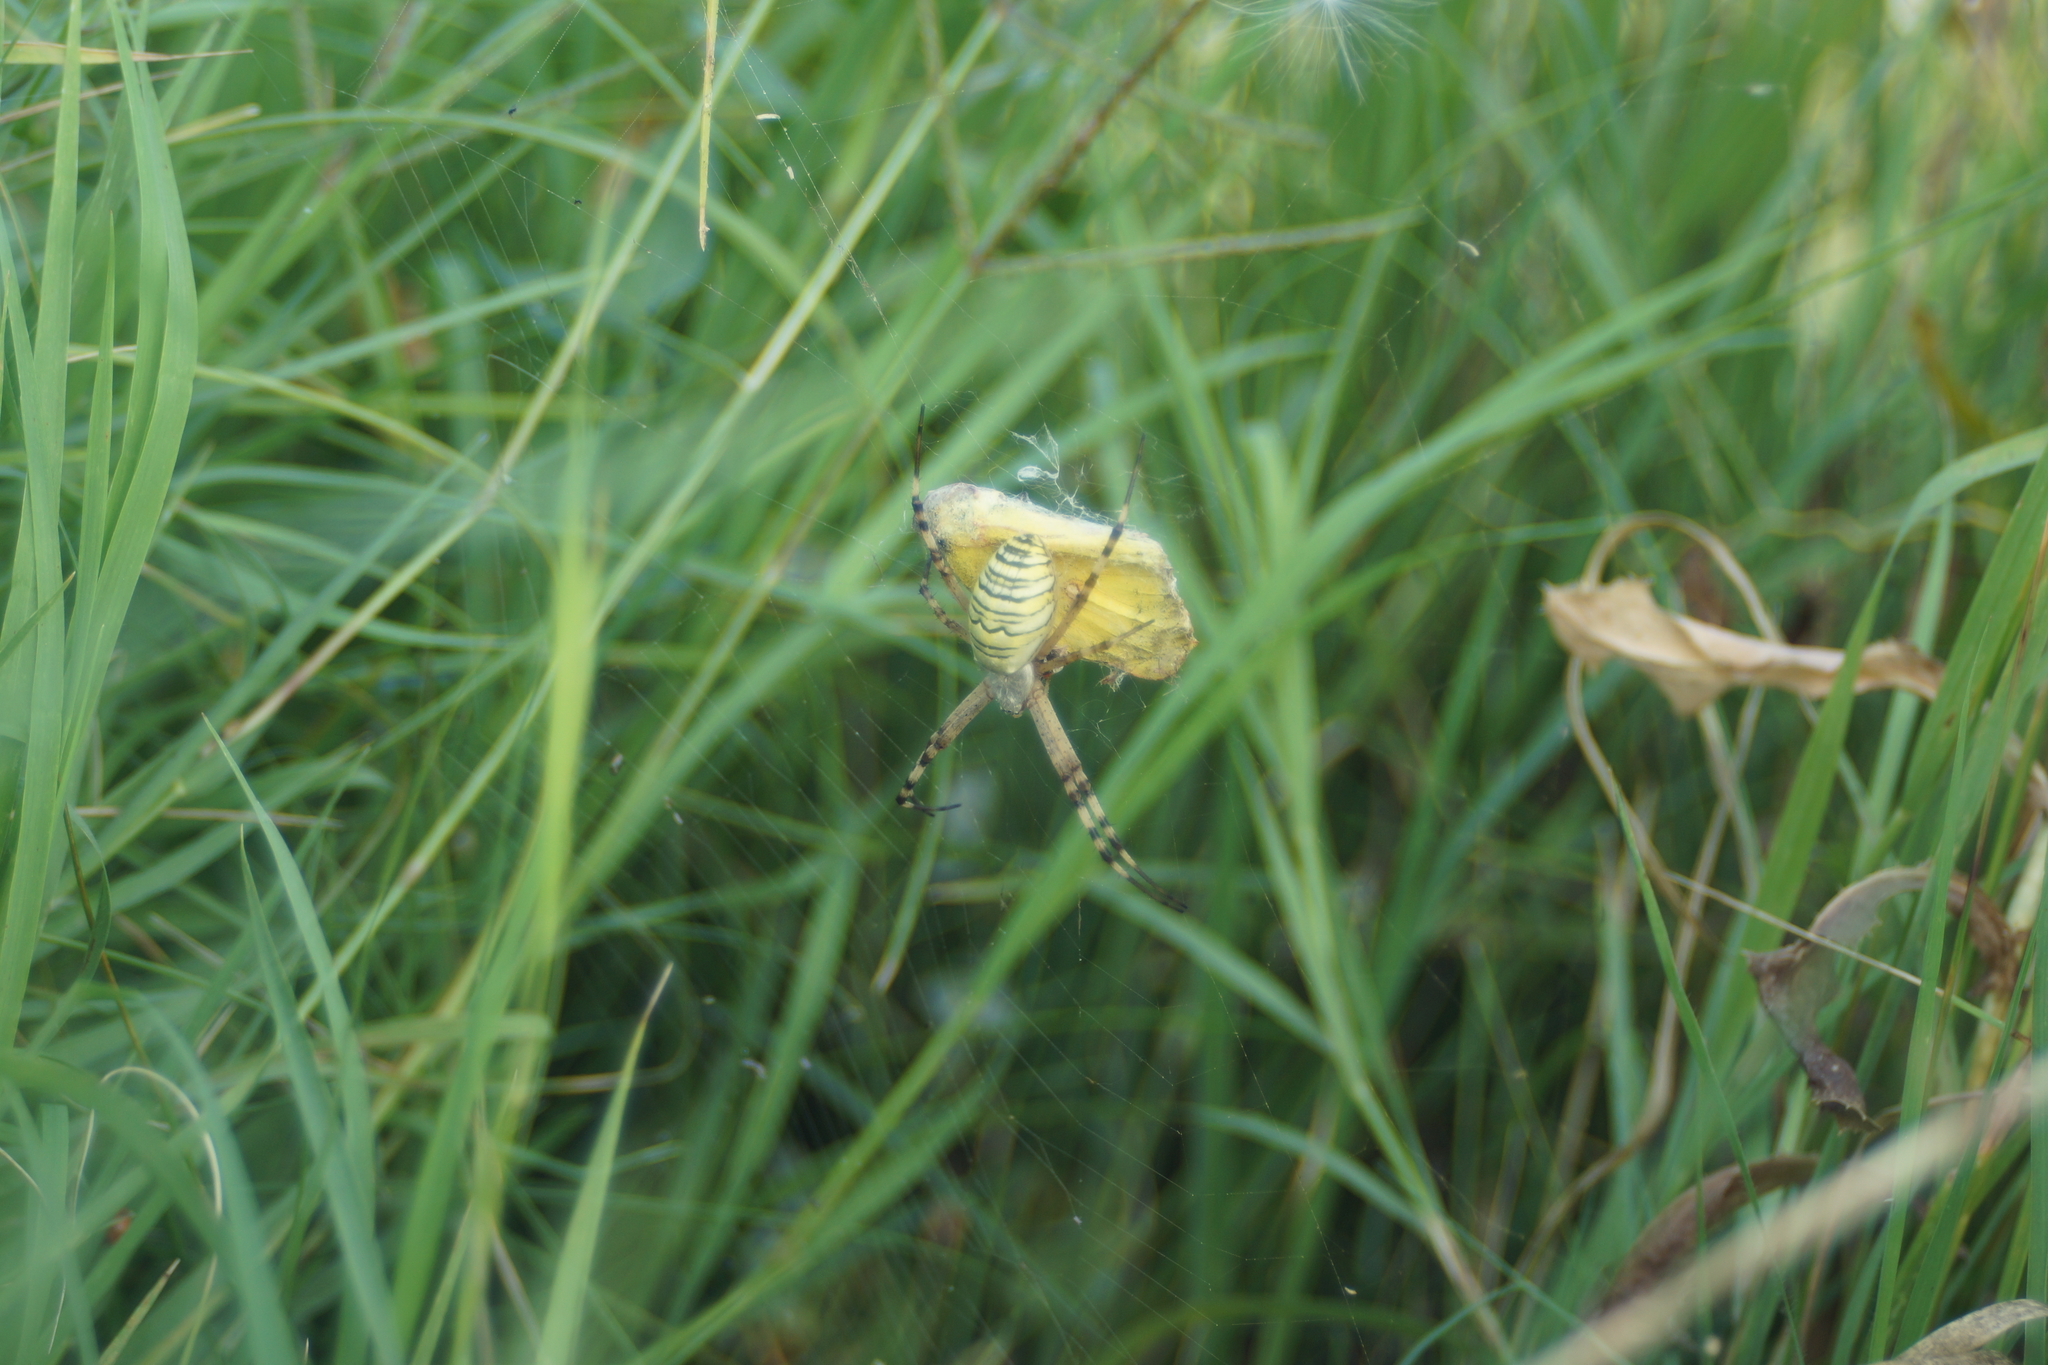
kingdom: Animalia
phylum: Arthropoda
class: Arachnida
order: Araneae
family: Araneidae
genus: Argiope
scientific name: Argiope bruennichi
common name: Wasp spider
